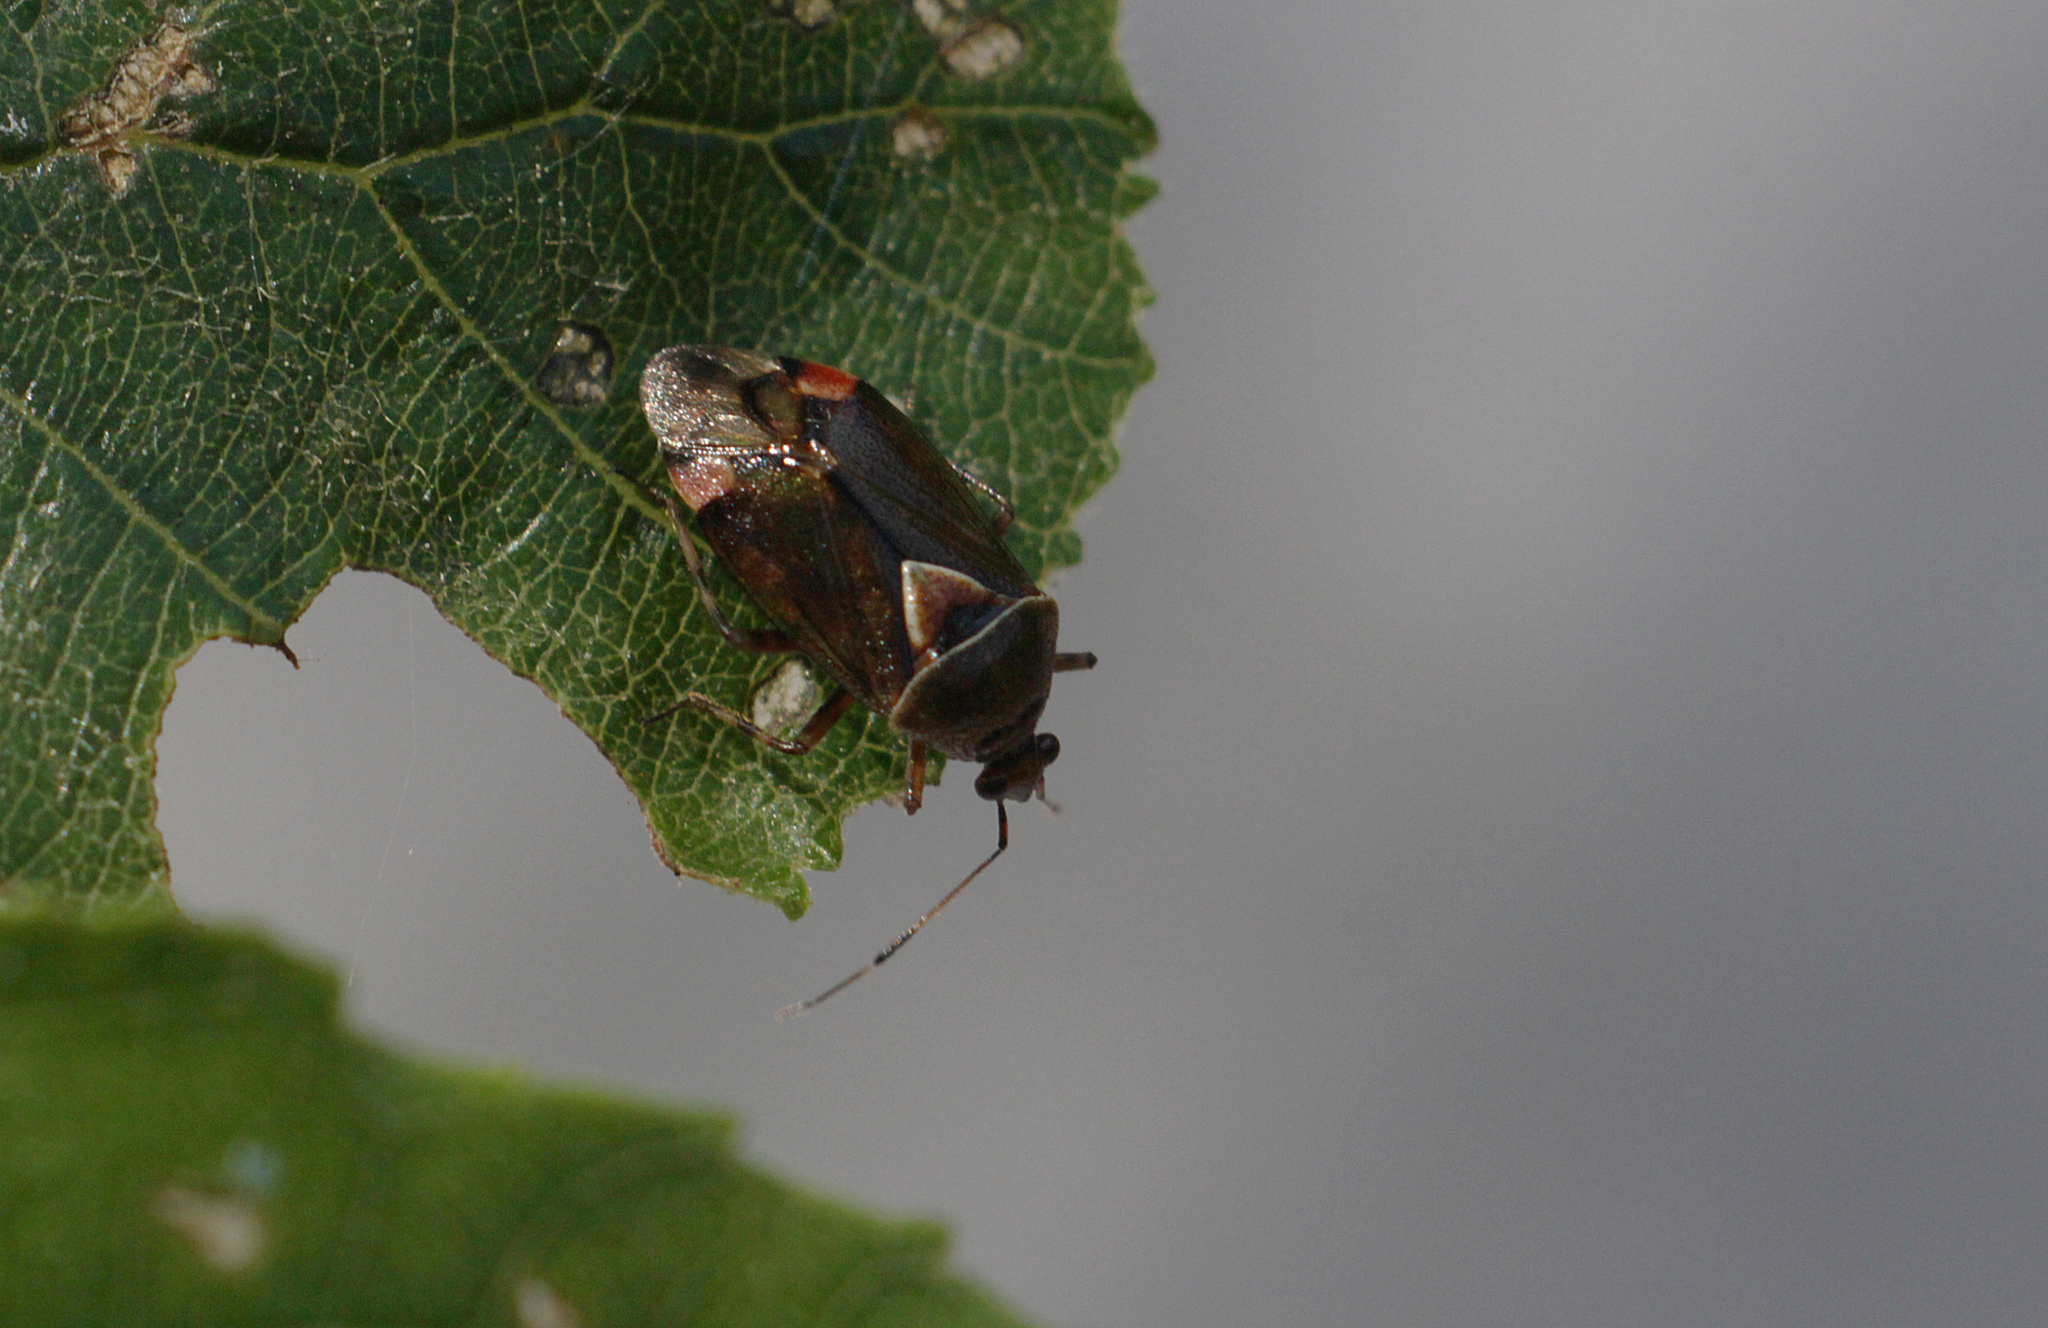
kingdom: Animalia
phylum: Arthropoda
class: Insecta
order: Hemiptera
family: Miridae
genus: Deraeocoris
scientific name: Deraeocoris flavilinea
